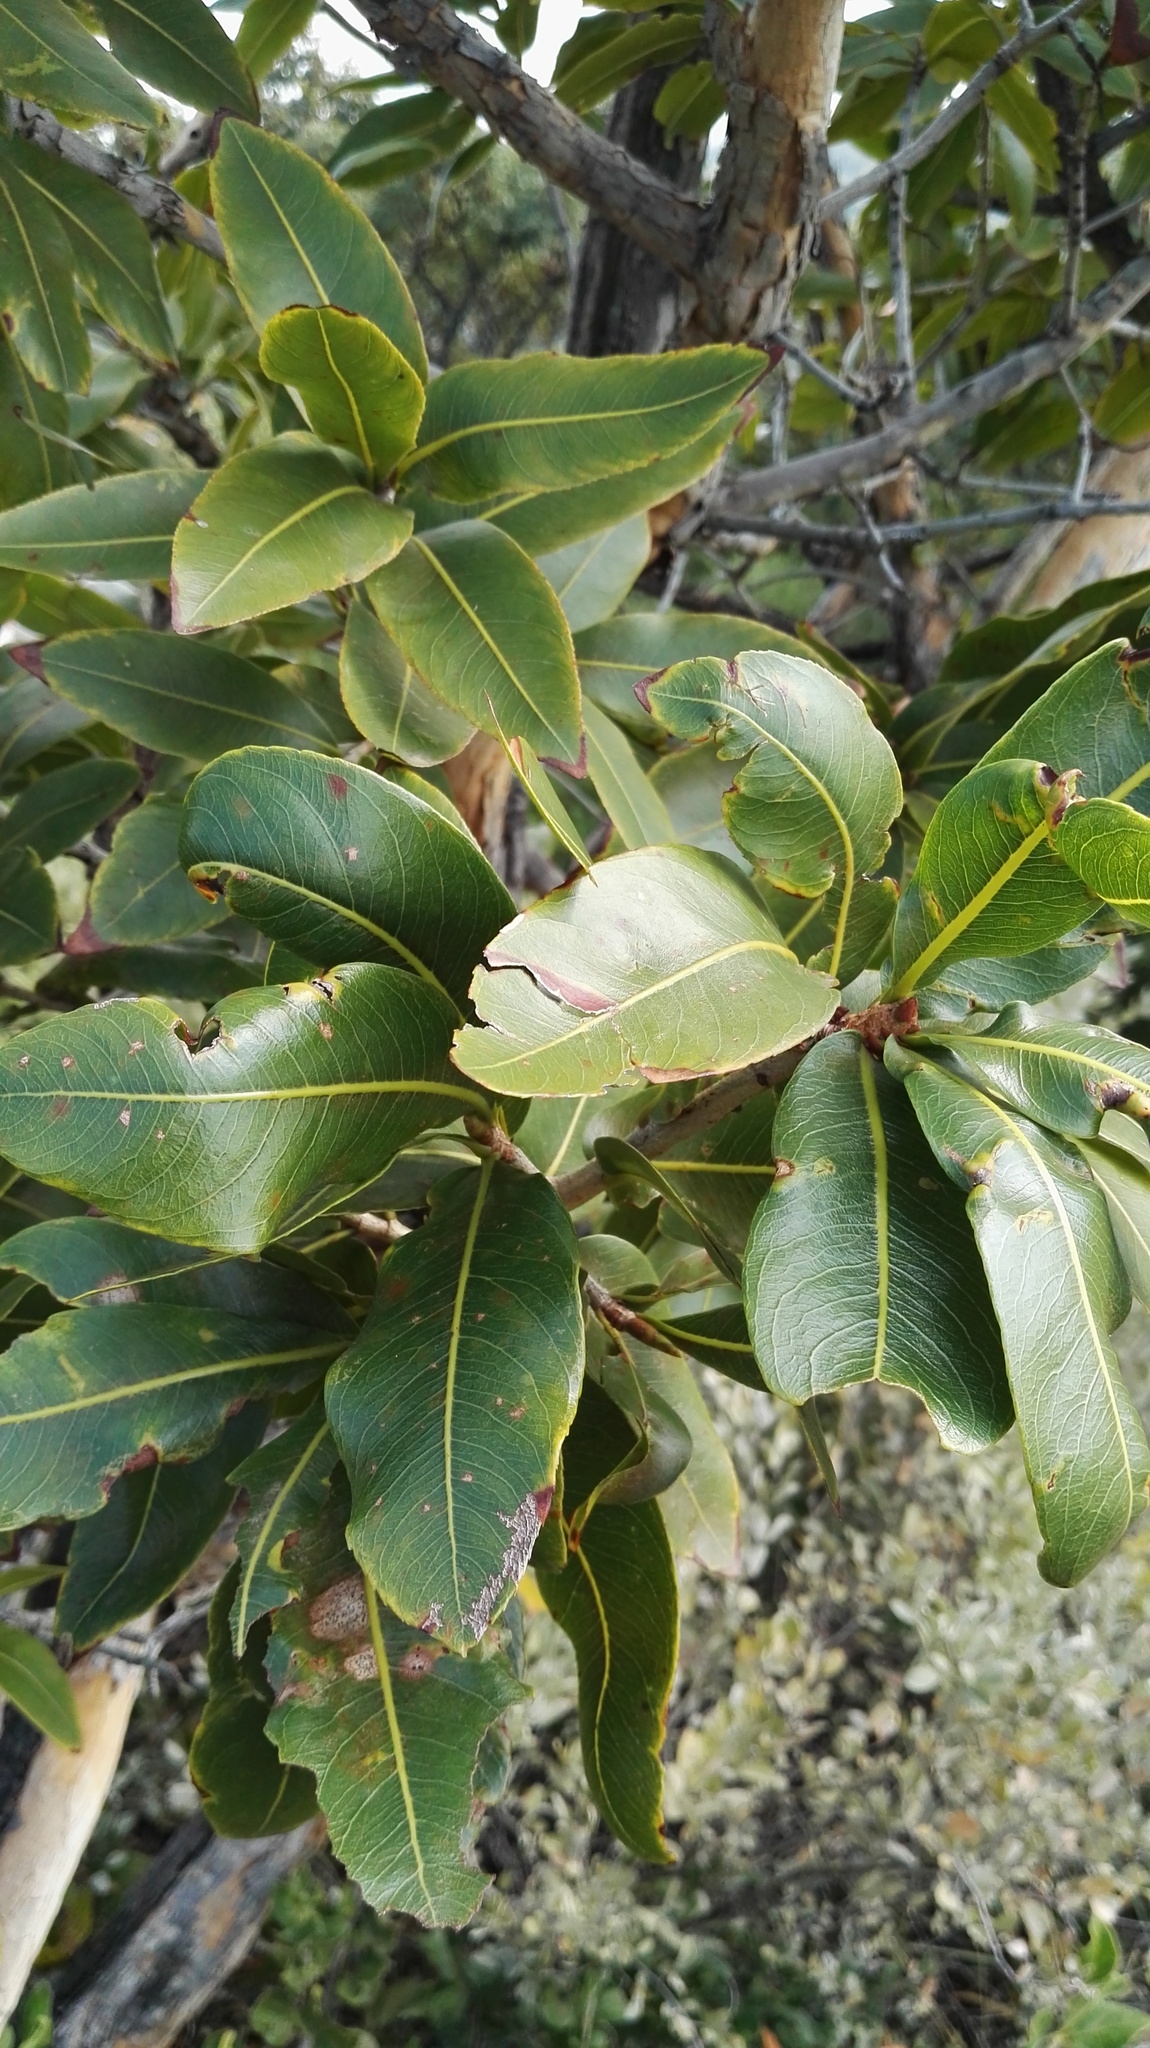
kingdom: Plantae
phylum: Tracheophyta
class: Magnoliopsida
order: Malpighiales
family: Ochnaceae
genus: Ochna
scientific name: Ochna pulchra
